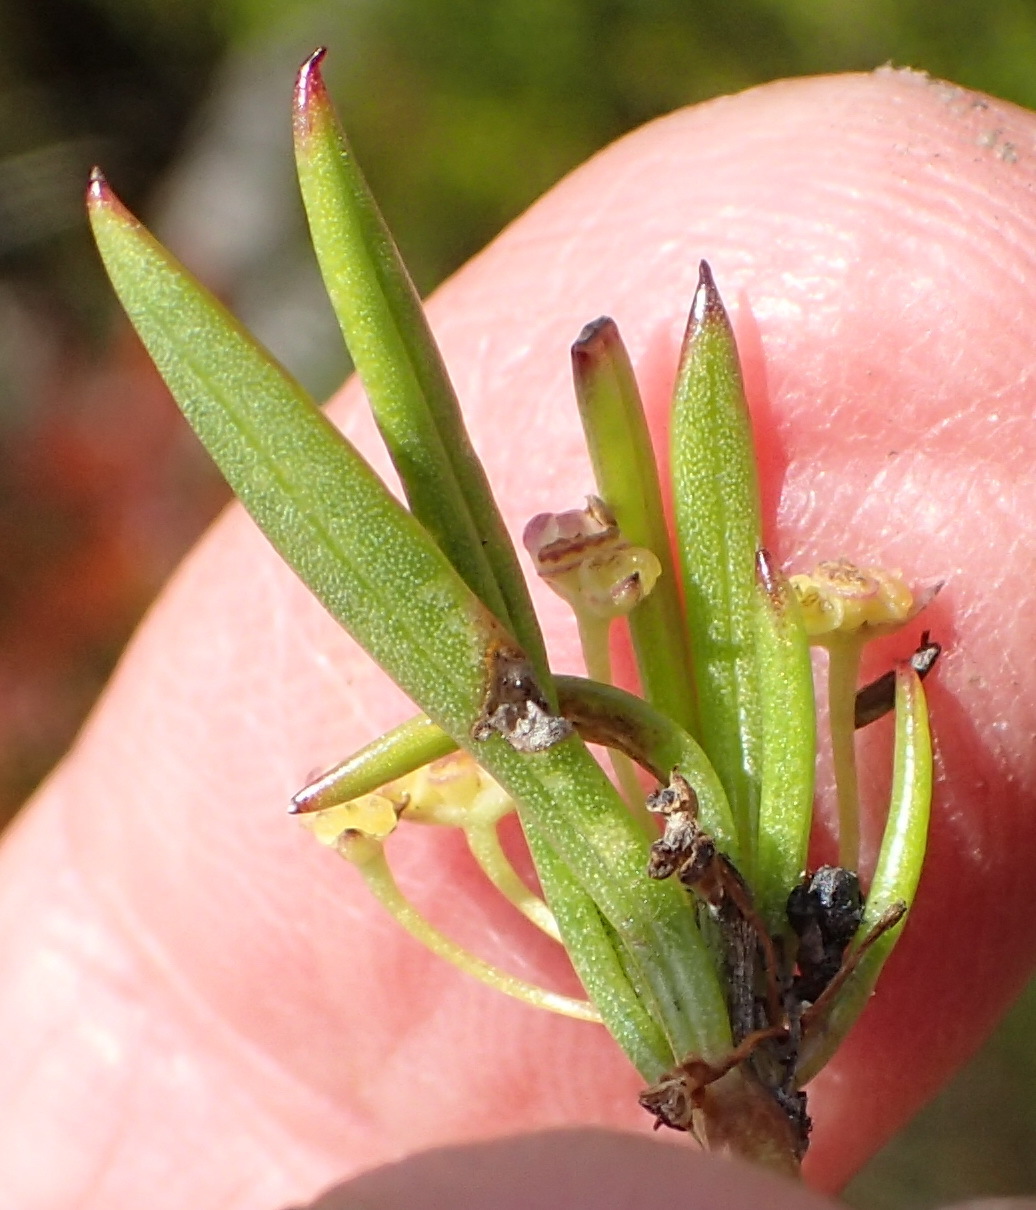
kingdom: Plantae
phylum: Tracheophyta
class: Magnoliopsida
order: Apiales
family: Apiaceae
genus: Centella
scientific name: Centella sessilis
